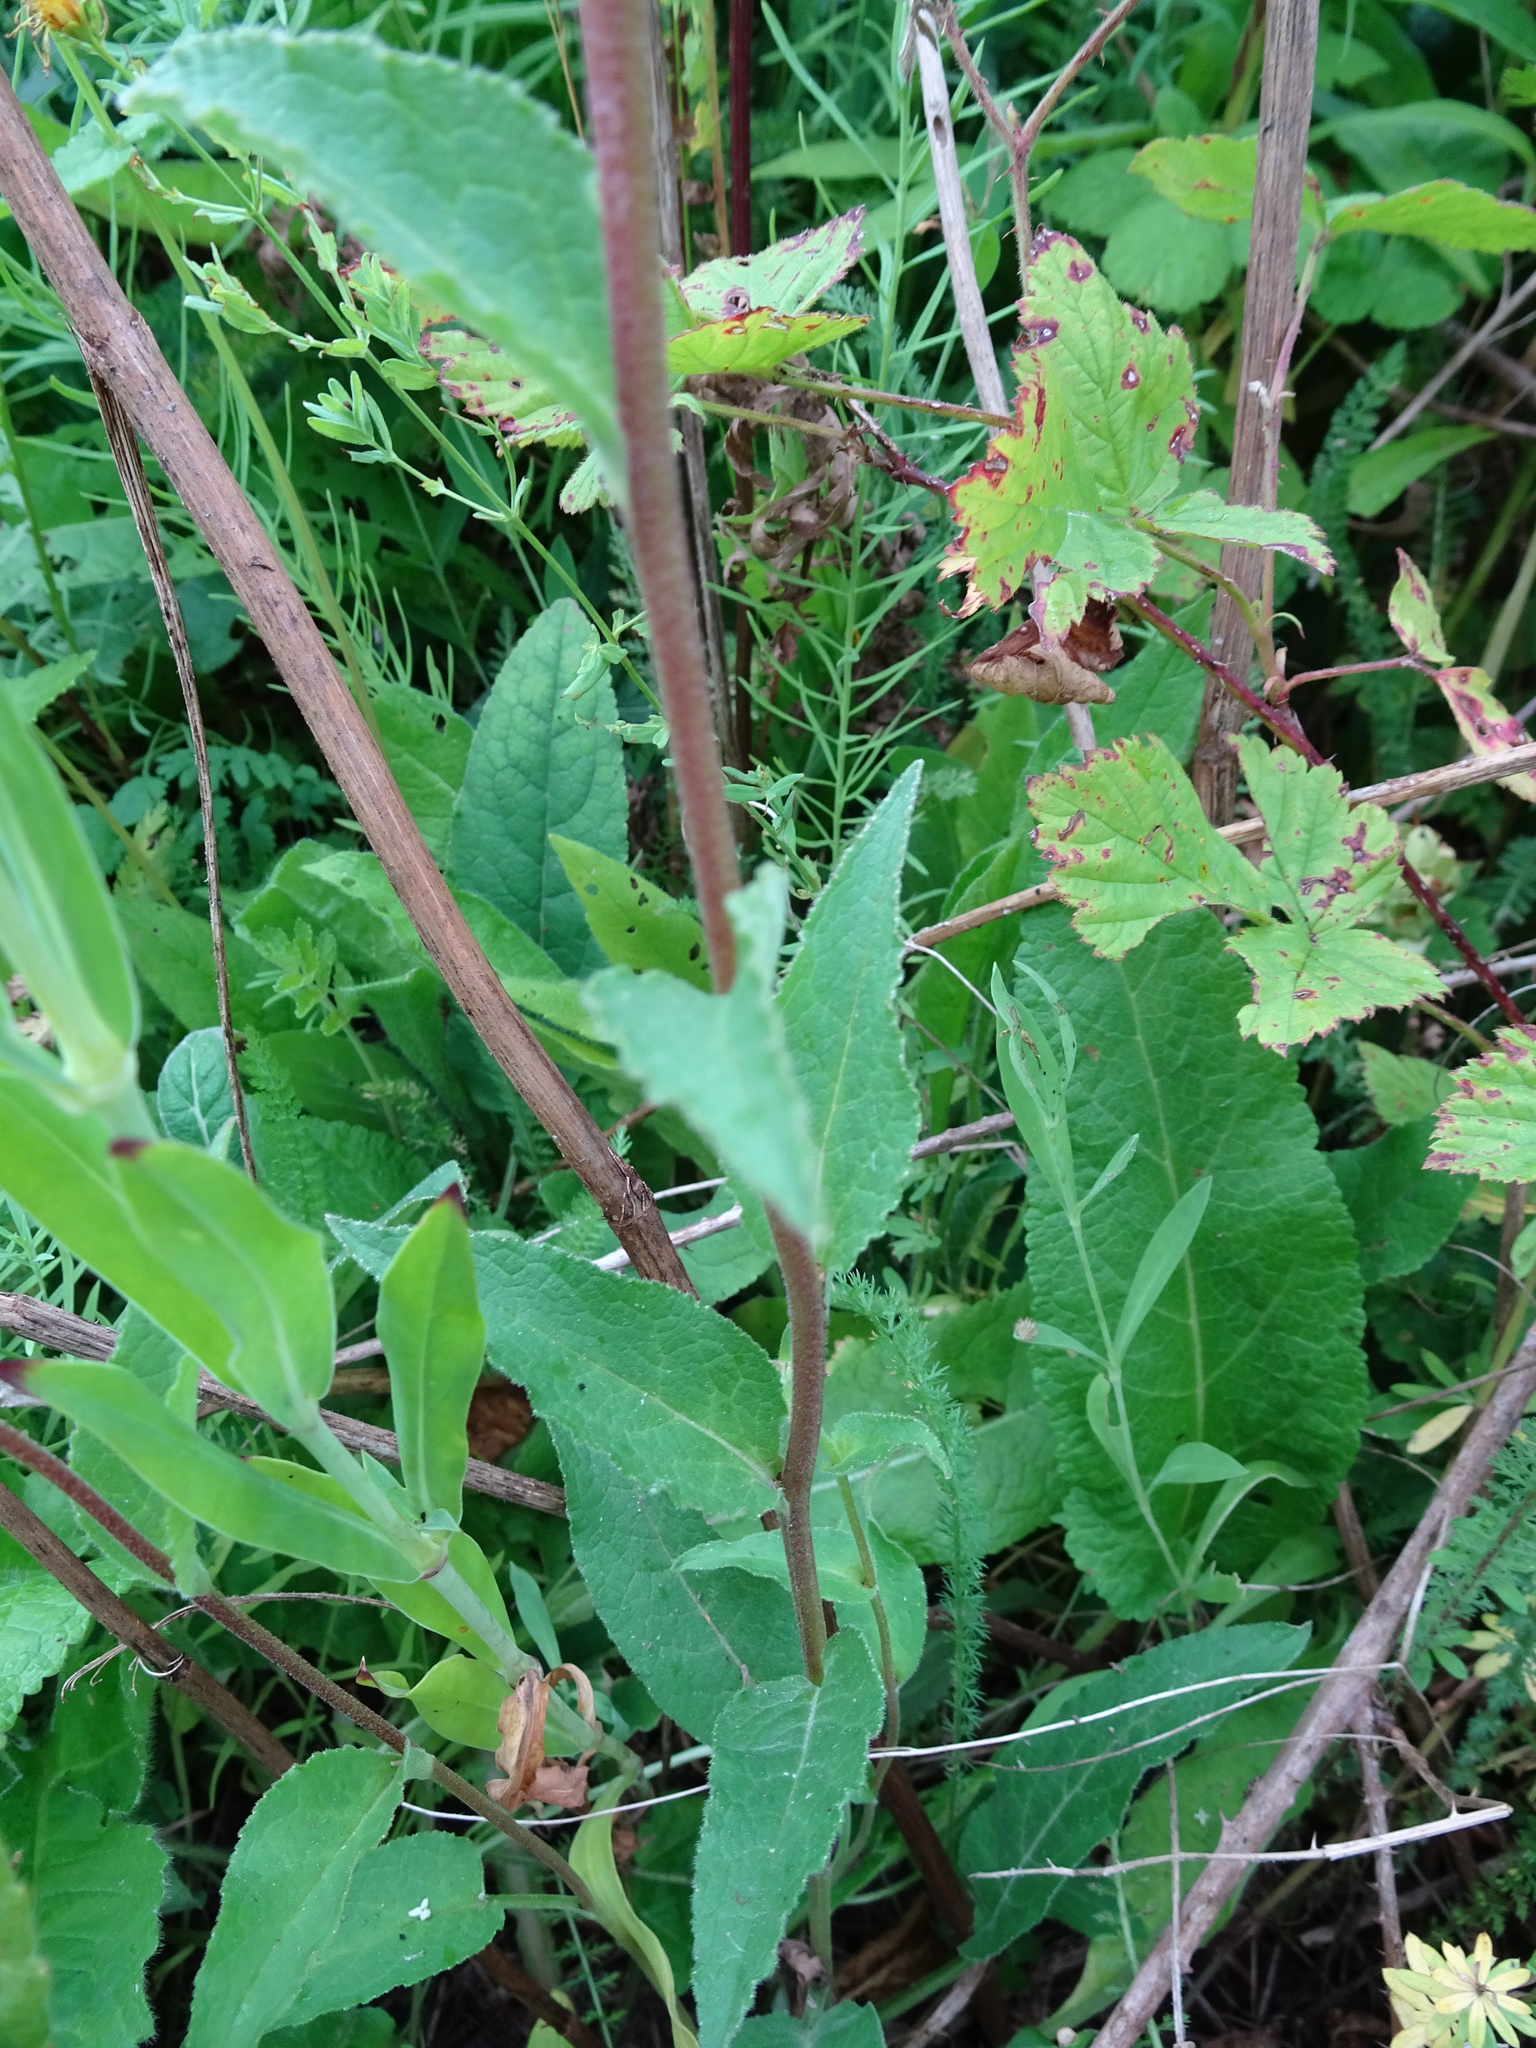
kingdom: Plantae
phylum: Tracheophyta
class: Magnoliopsida
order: Asterales
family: Campanulaceae
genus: Campanula
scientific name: Campanula glomerata
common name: Clustered bellflower
